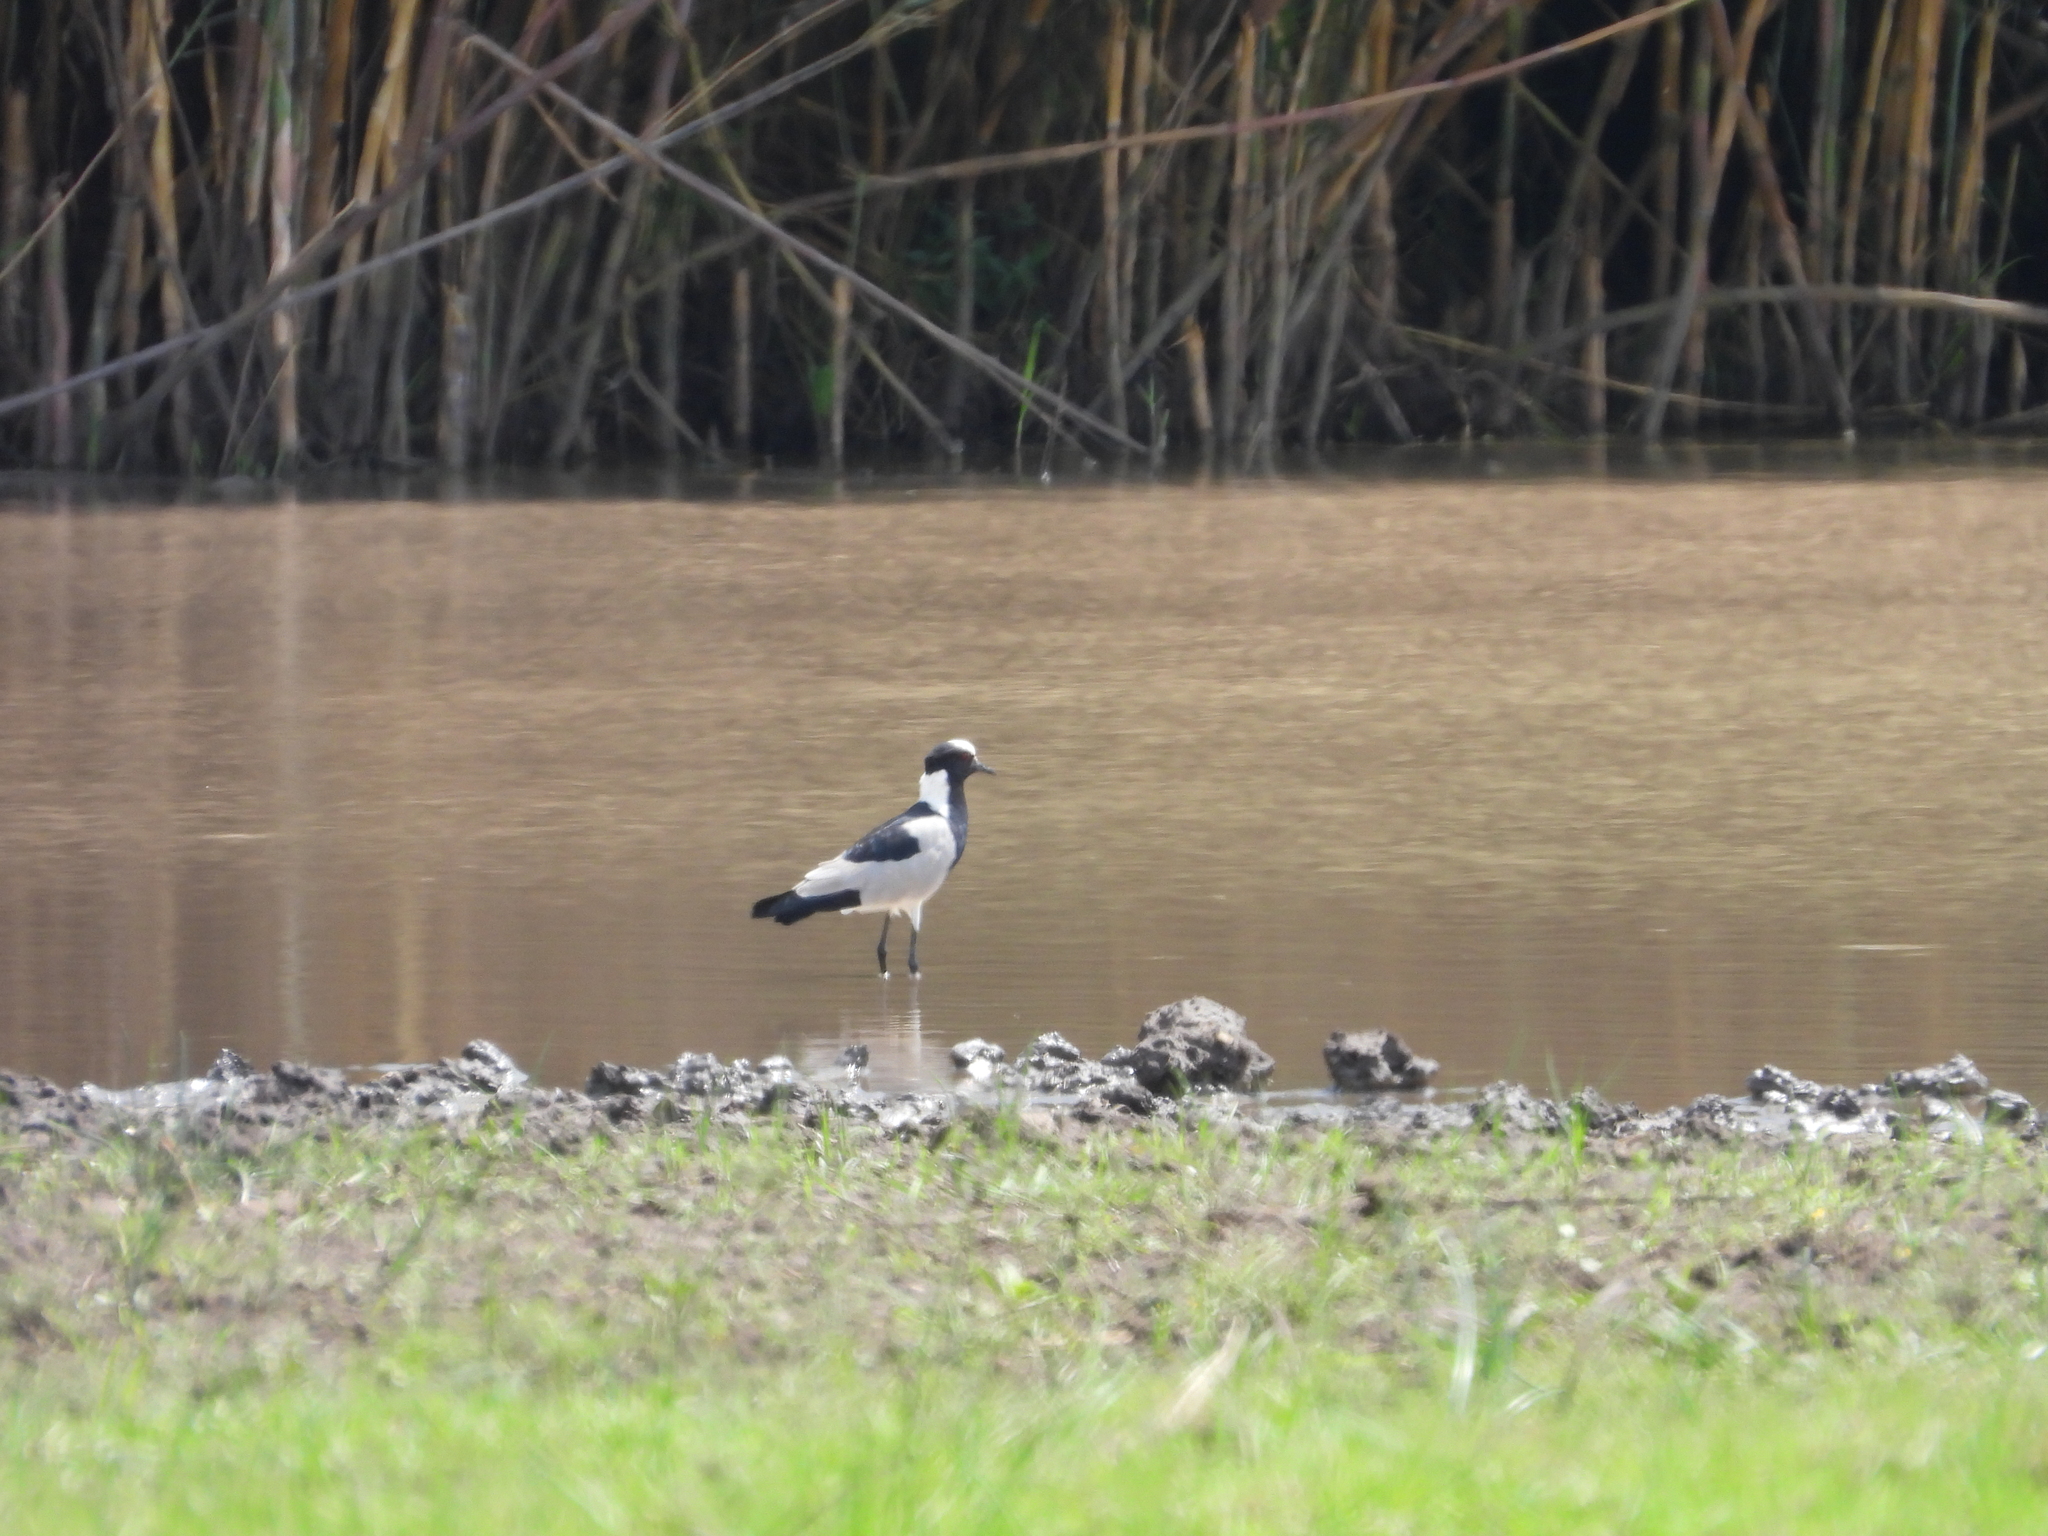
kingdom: Animalia
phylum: Chordata
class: Aves
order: Charadriiformes
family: Charadriidae
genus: Vanellus
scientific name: Vanellus armatus
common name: Blacksmith lapwing
